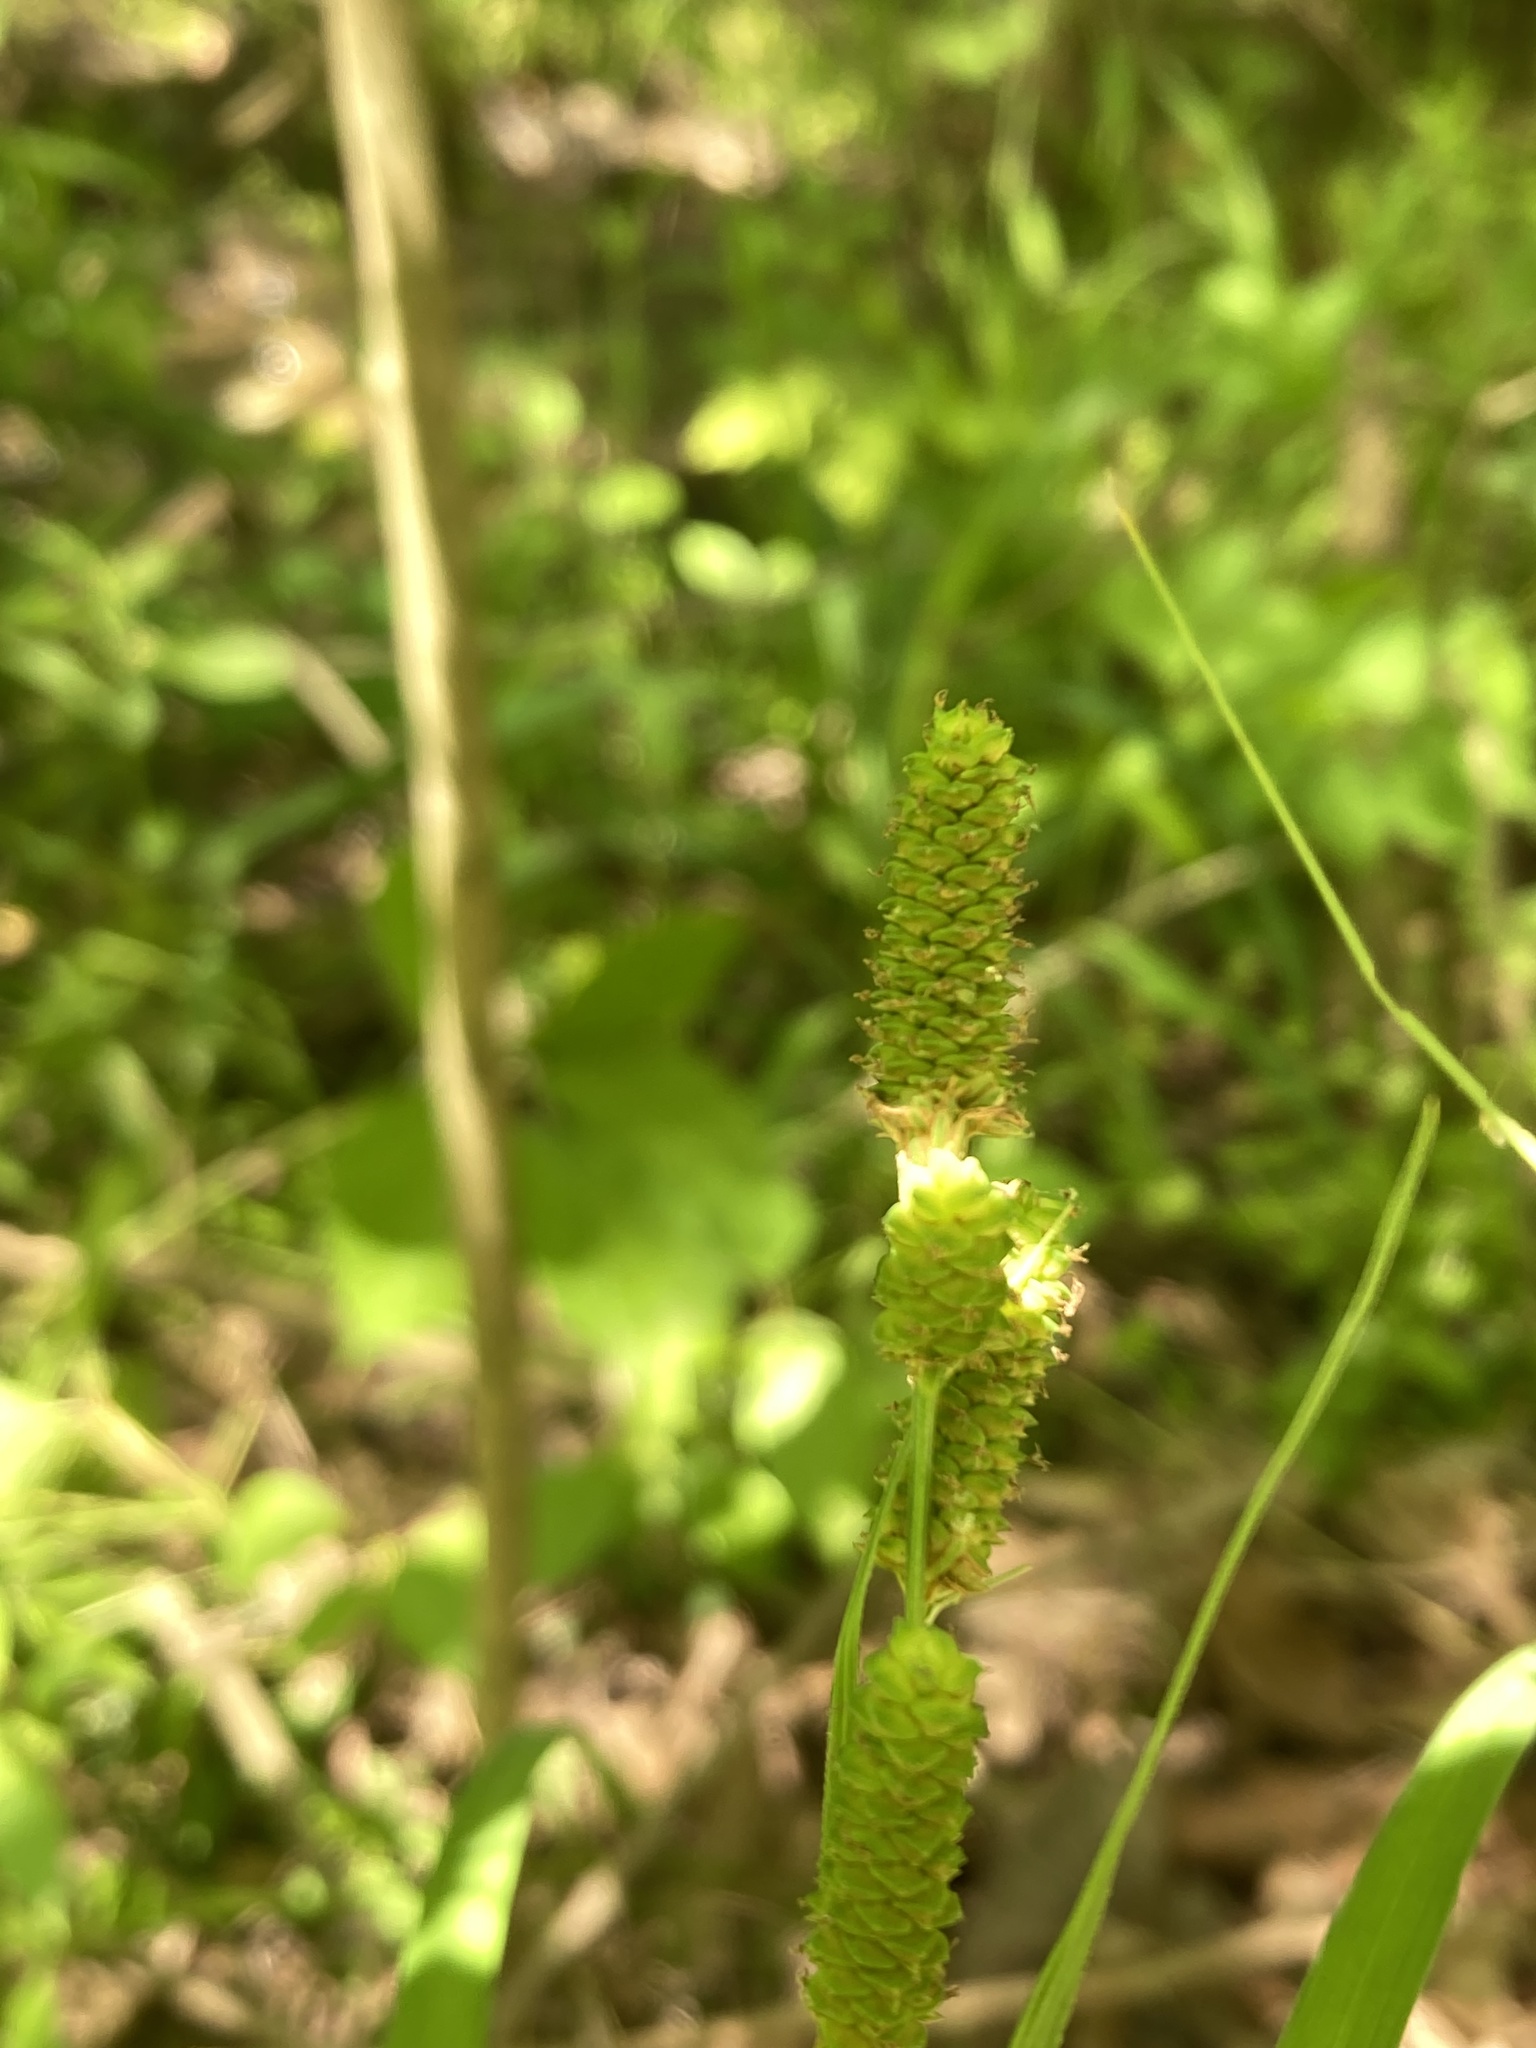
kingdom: Plantae
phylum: Tracheophyta
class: Liliopsida
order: Poales
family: Cyperaceae
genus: Carex
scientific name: Carex shortiana
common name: Short's sedge
